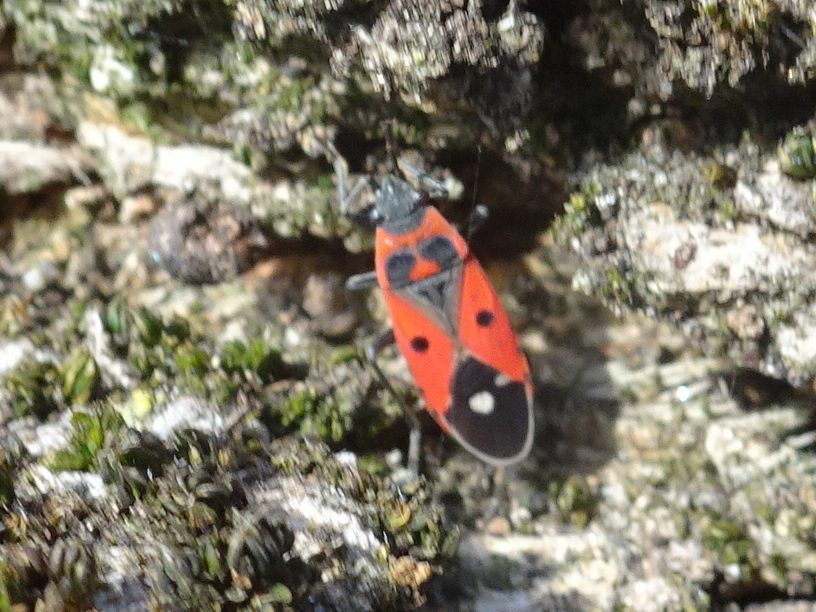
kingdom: Animalia
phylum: Arthropoda
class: Insecta
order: Hemiptera
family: Lygaeidae
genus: Melanocoryphus
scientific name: Melanocoryphus albomaculatus
